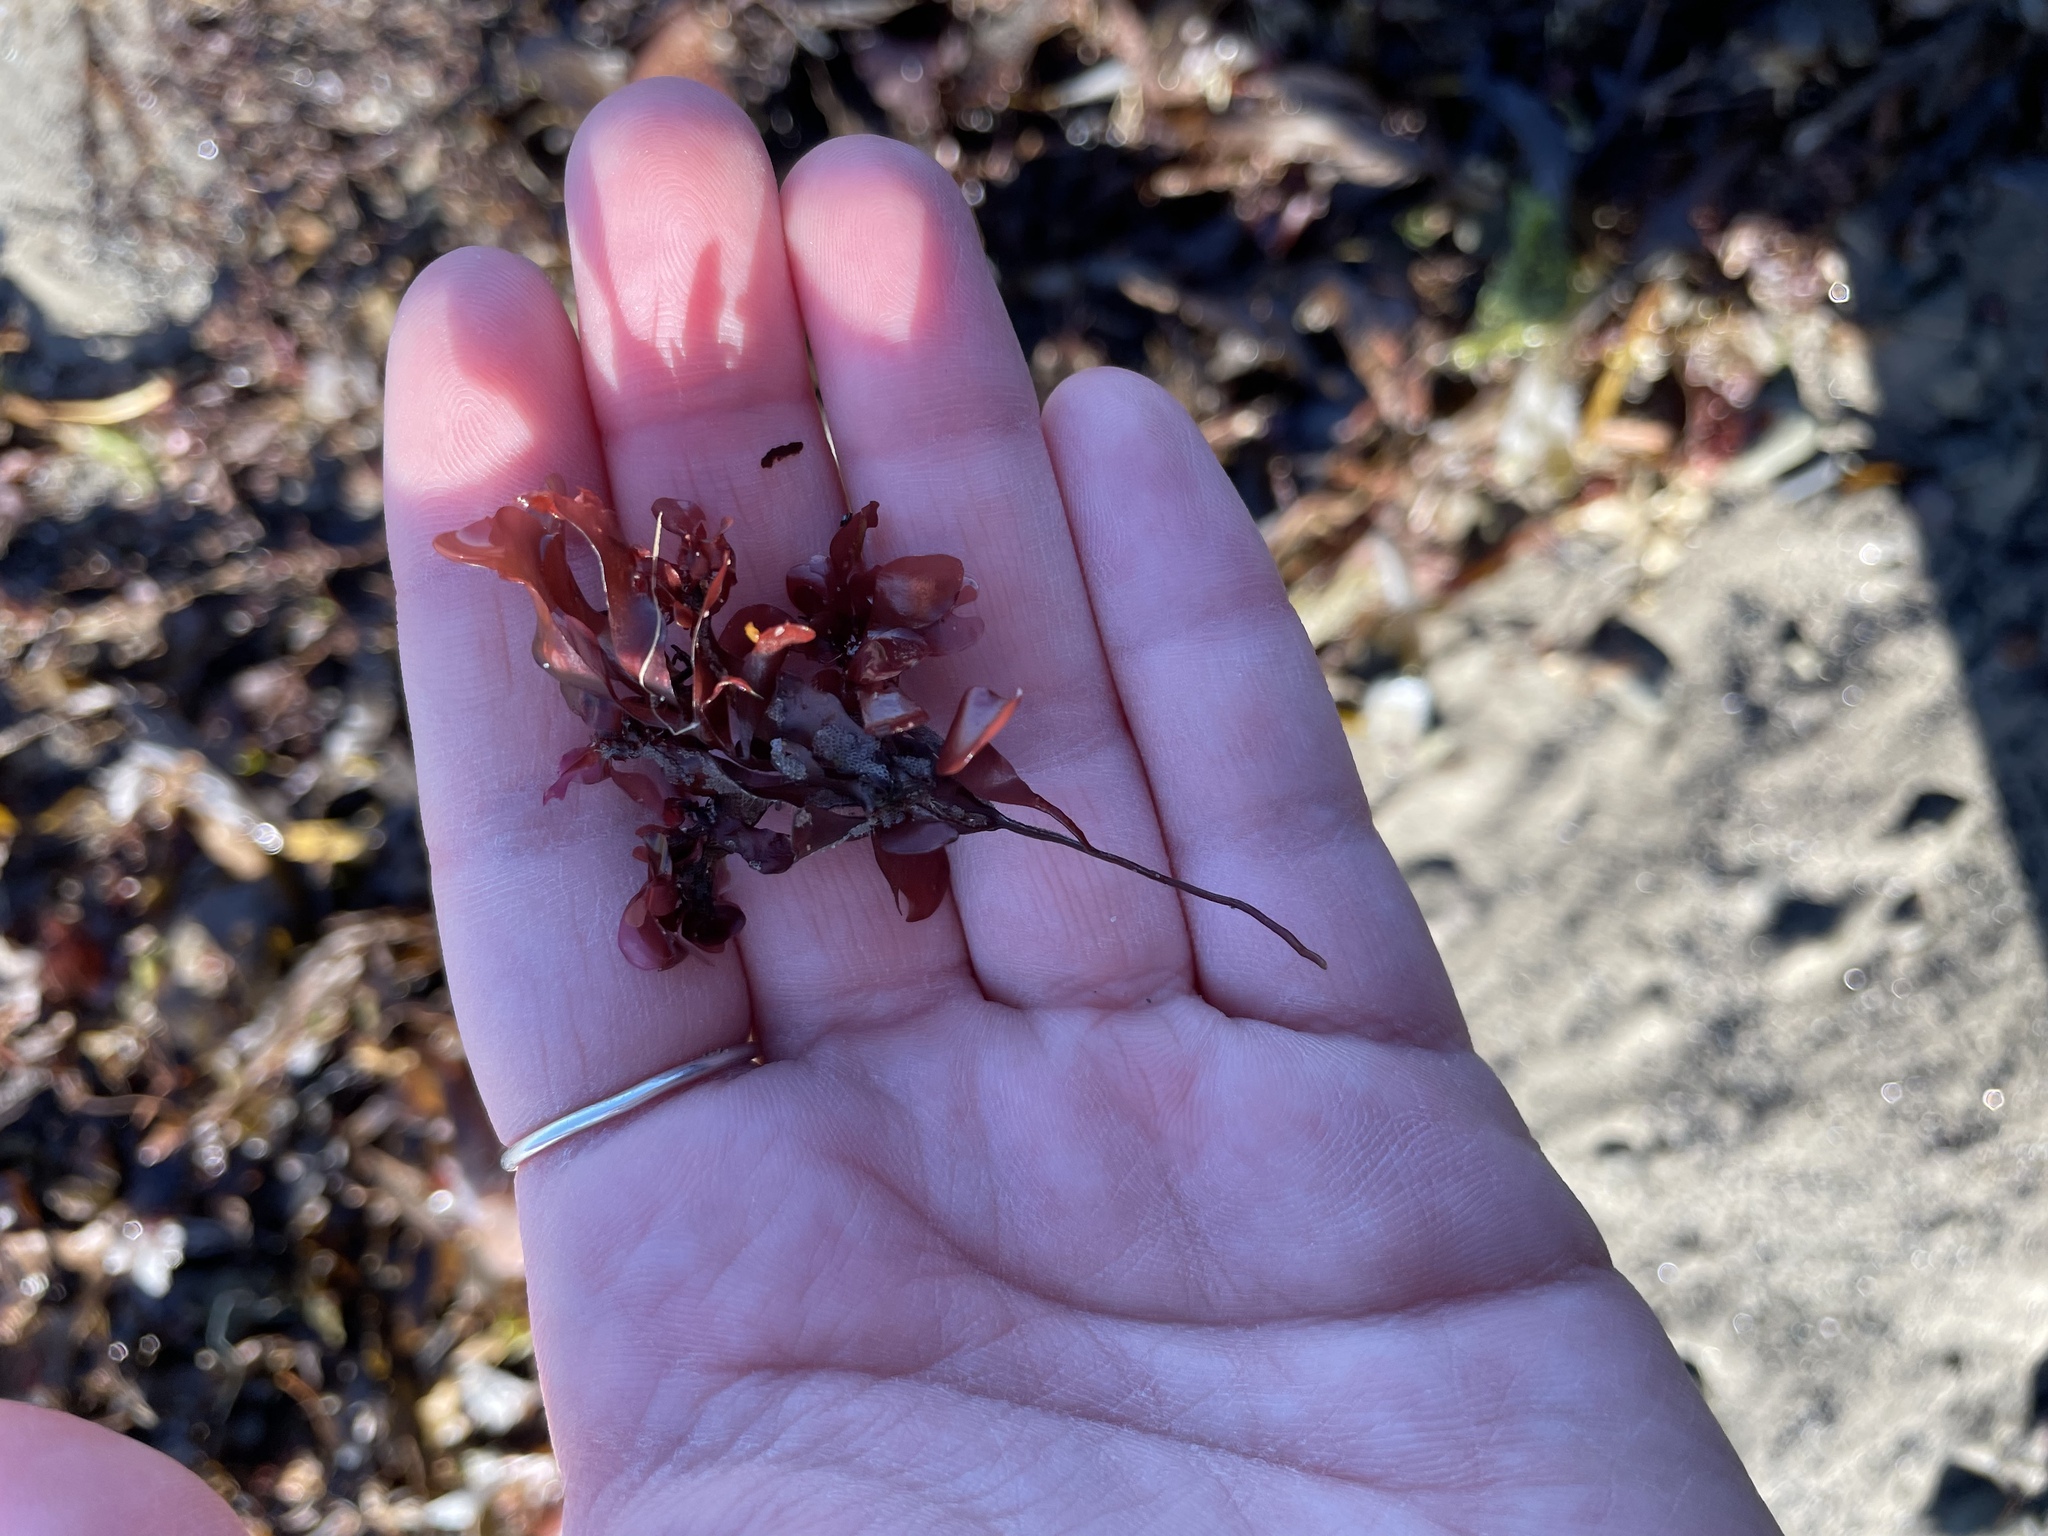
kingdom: Plantae
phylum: Rhodophyta
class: Florideophyceae
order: Gigartinales
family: Gigartinaceae
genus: Chondrus
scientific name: Chondrus crispus
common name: Carrageen
